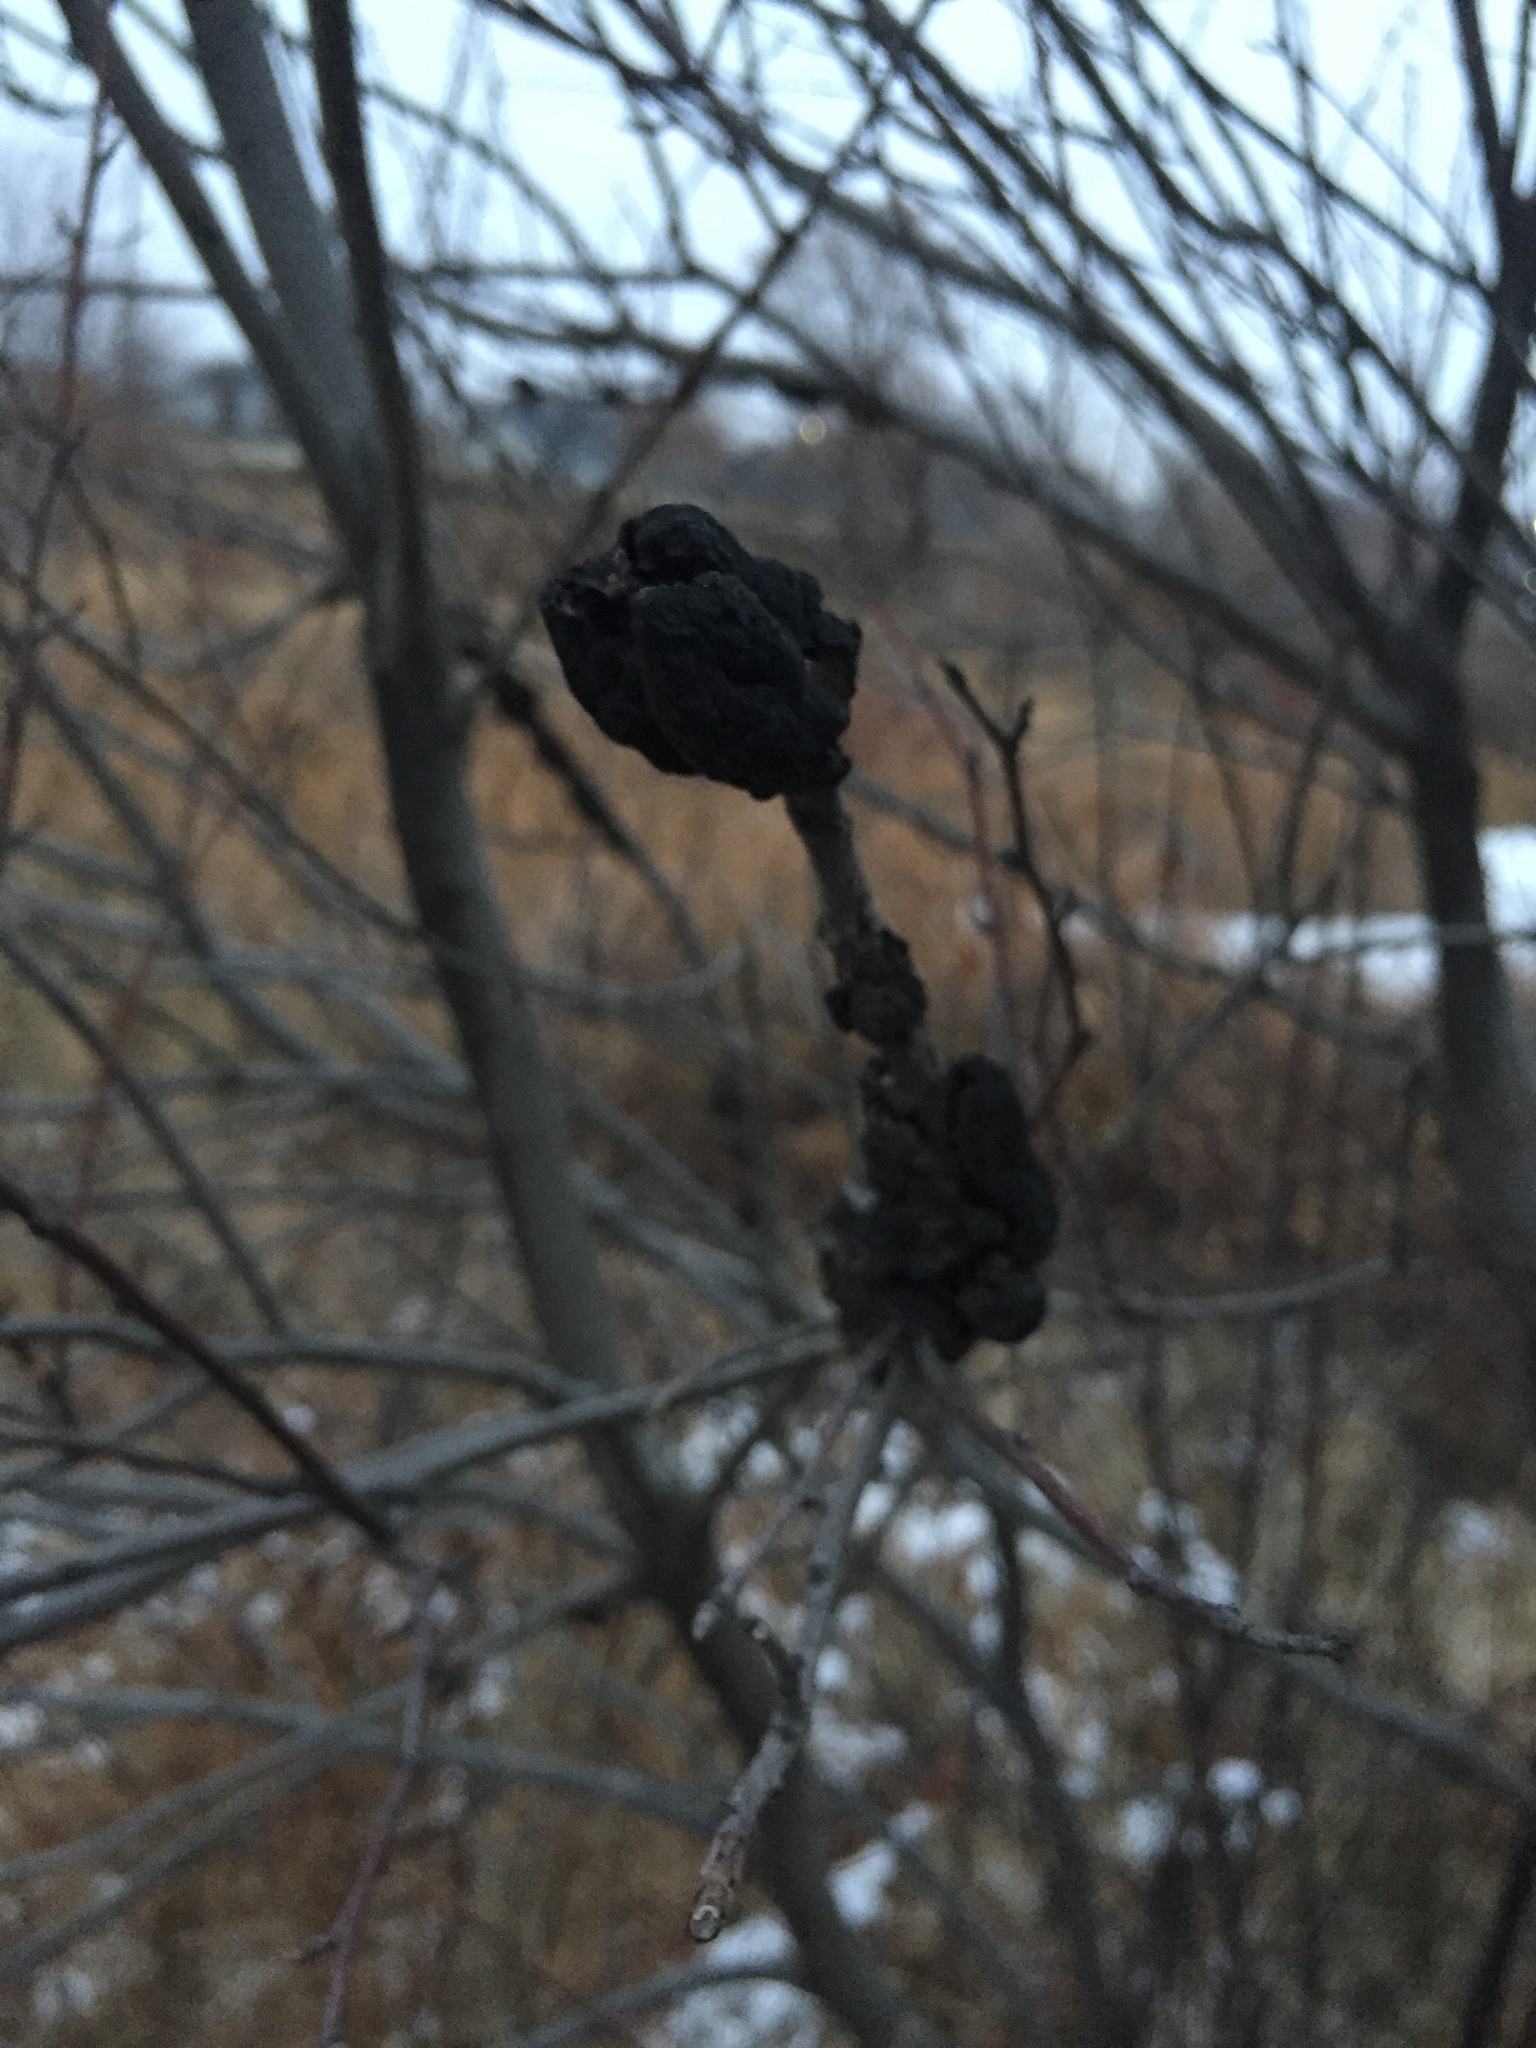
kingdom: Fungi
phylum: Ascomycota
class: Dothideomycetes
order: Venturiales
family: Venturiaceae
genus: Apiosporina
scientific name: Apiosporina morbosa
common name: Black knot
